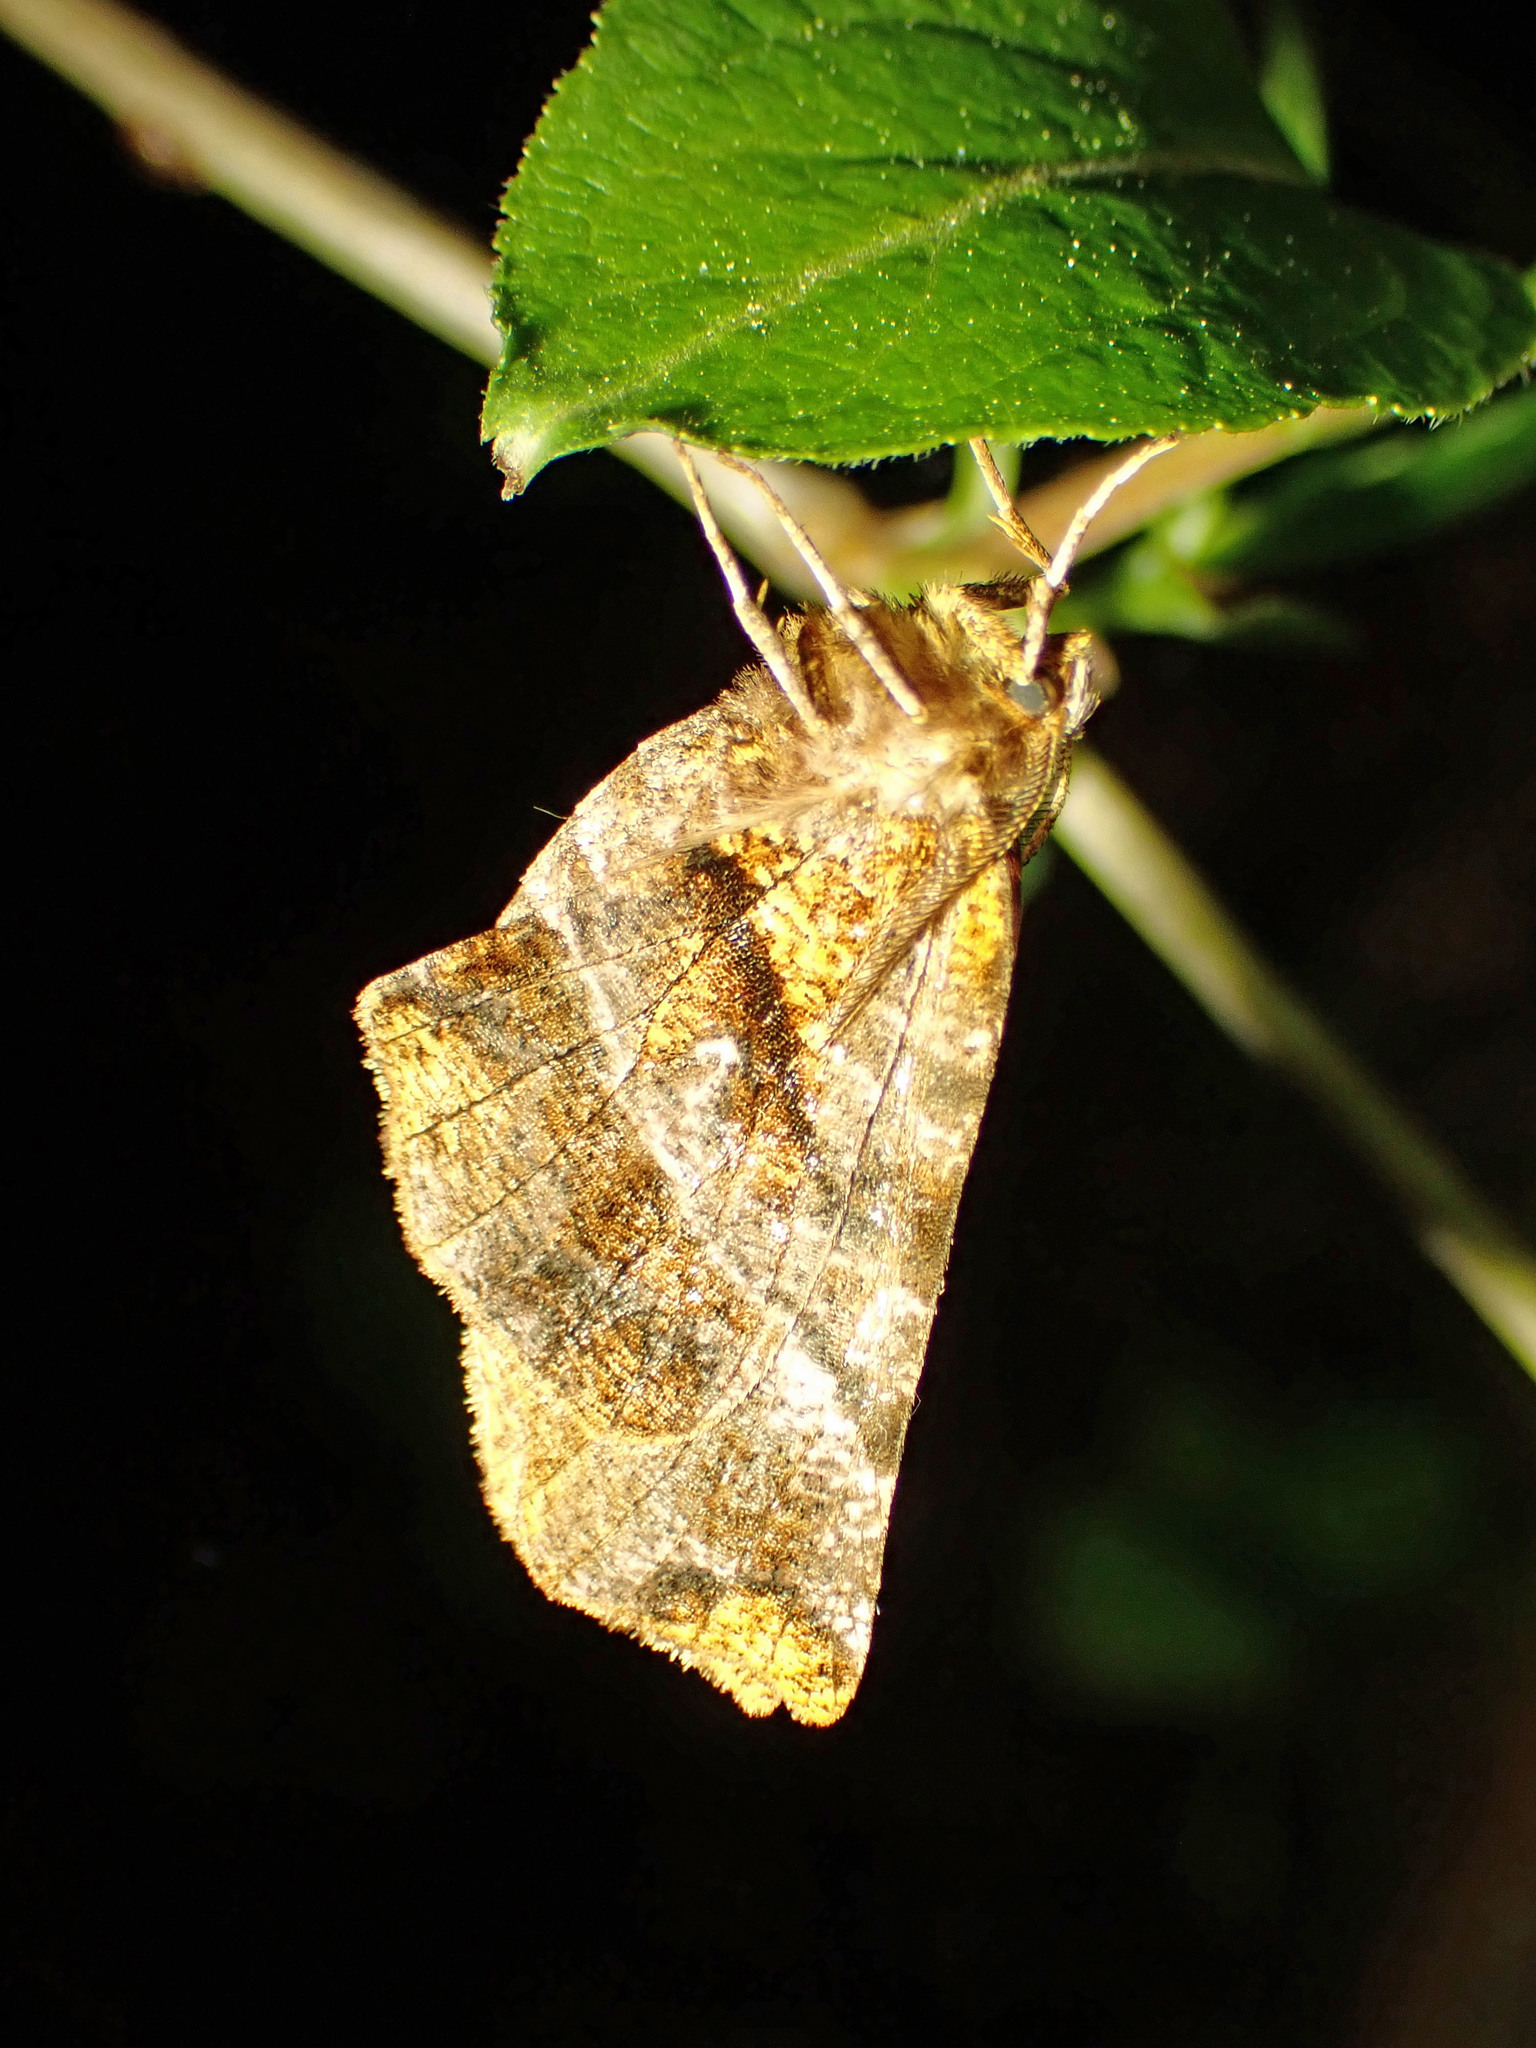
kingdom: Animalia
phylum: Arthropoda
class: Insecta
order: Lepidoptera
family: Geometridae
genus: Selenia
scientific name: Selenia alciphearia
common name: Brown-tipped thorn
